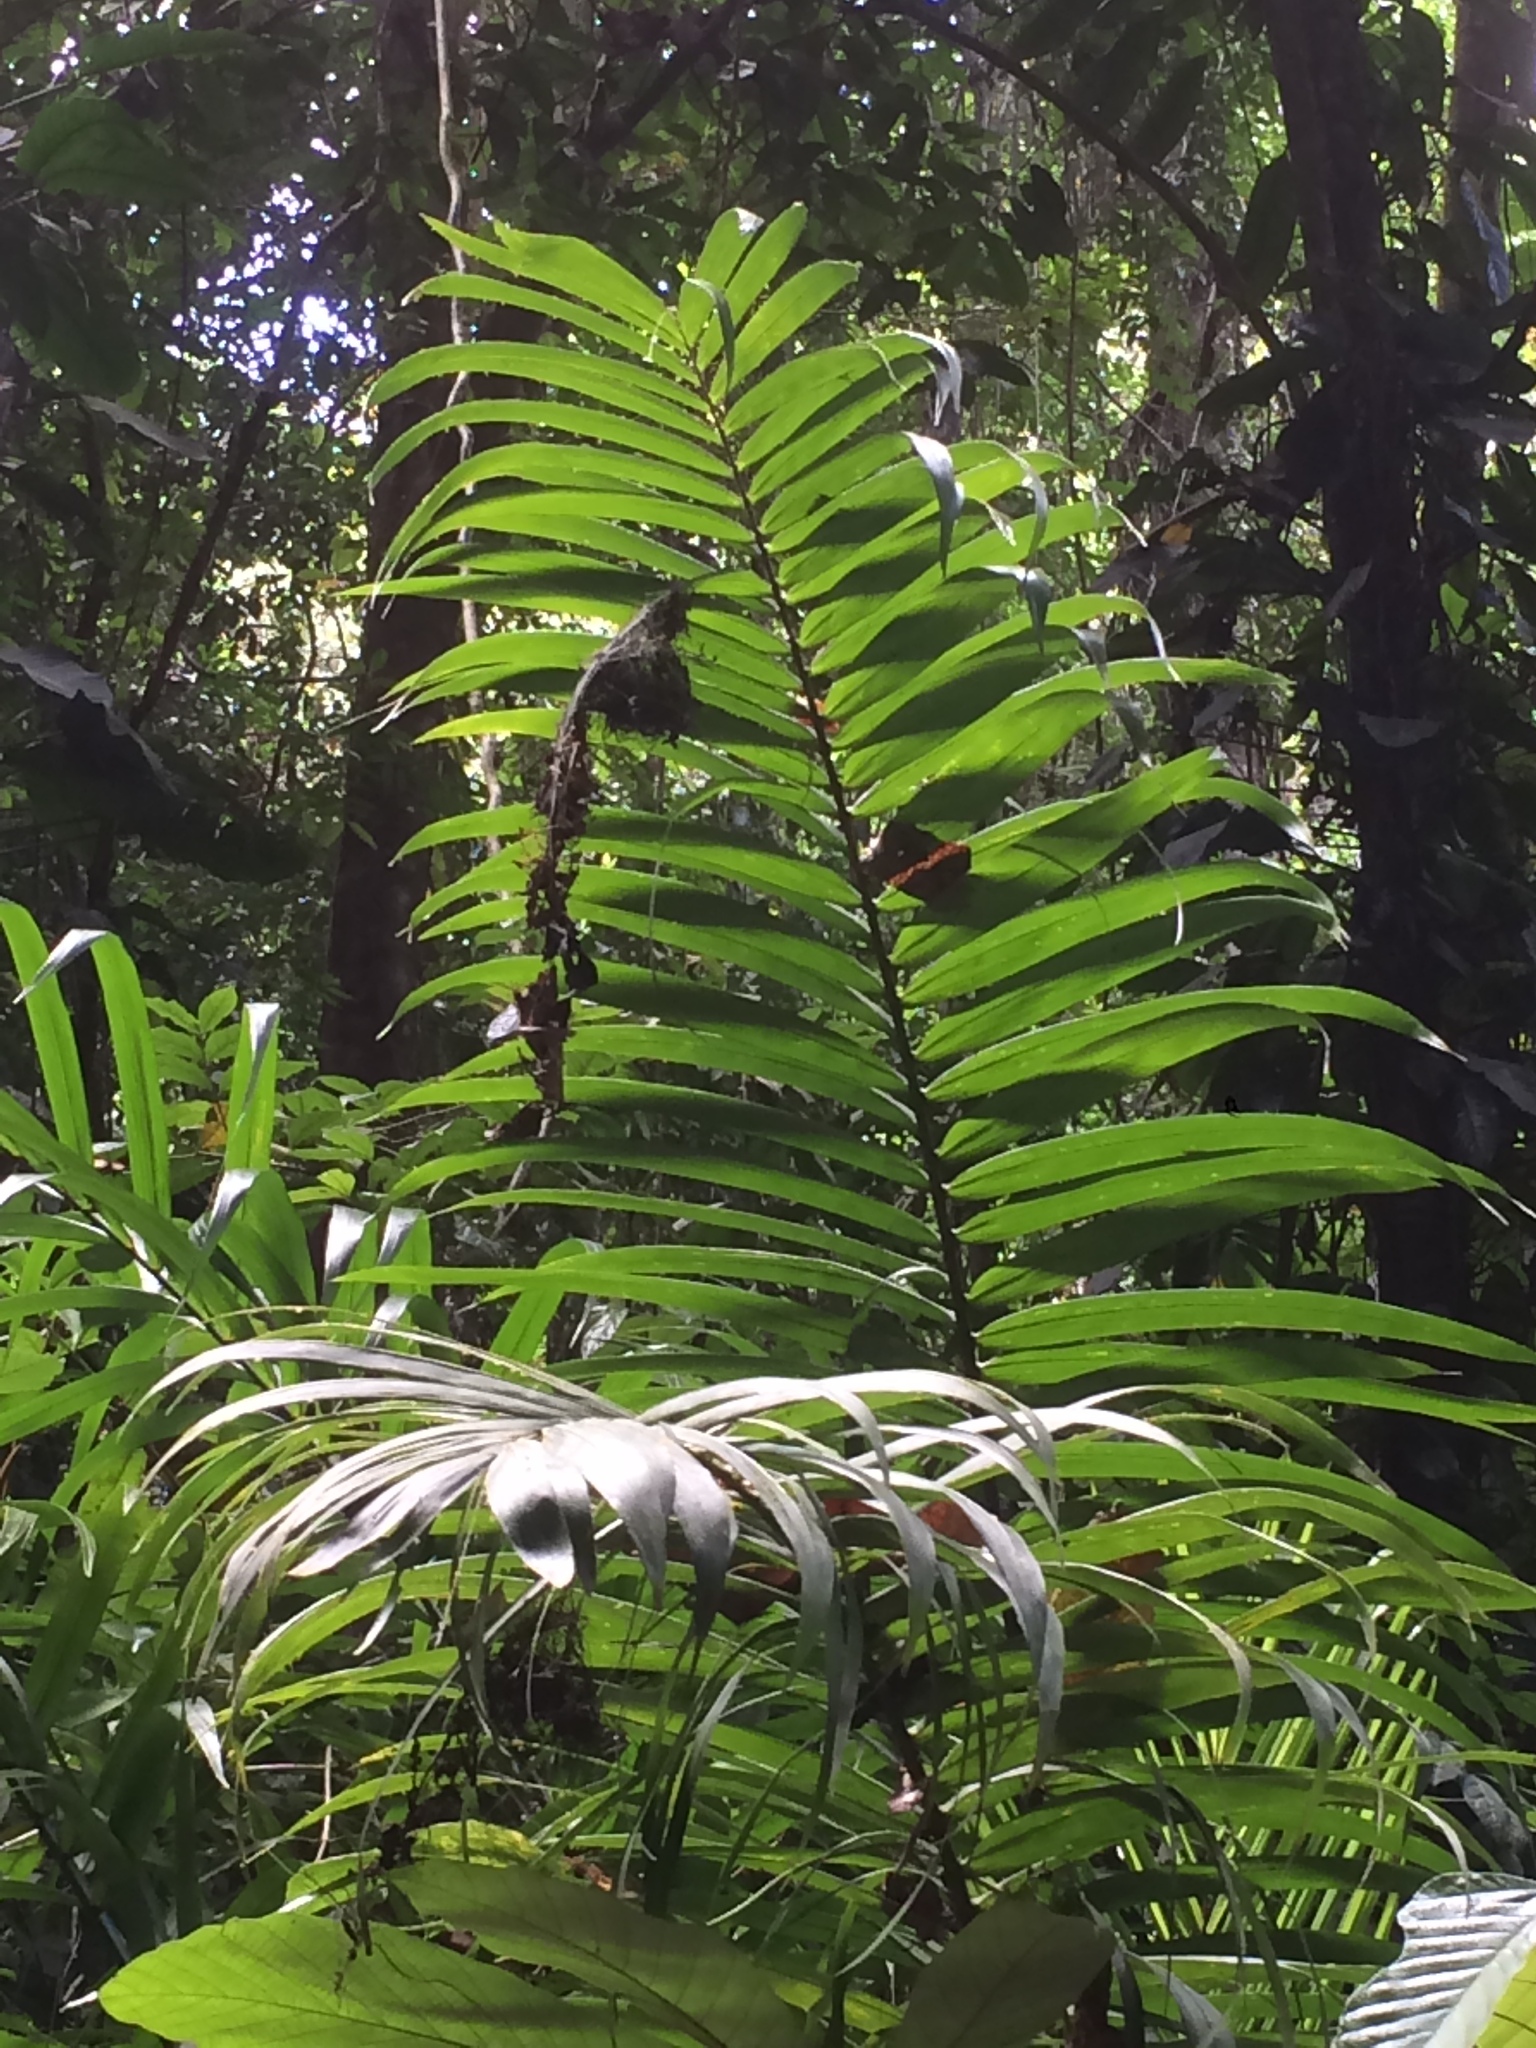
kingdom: Animalia
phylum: Chordata
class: Aves
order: Apodiformes
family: Trochilidae
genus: Glaucis
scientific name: Glaucis hirsutus
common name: Rufous-breasted hermit
